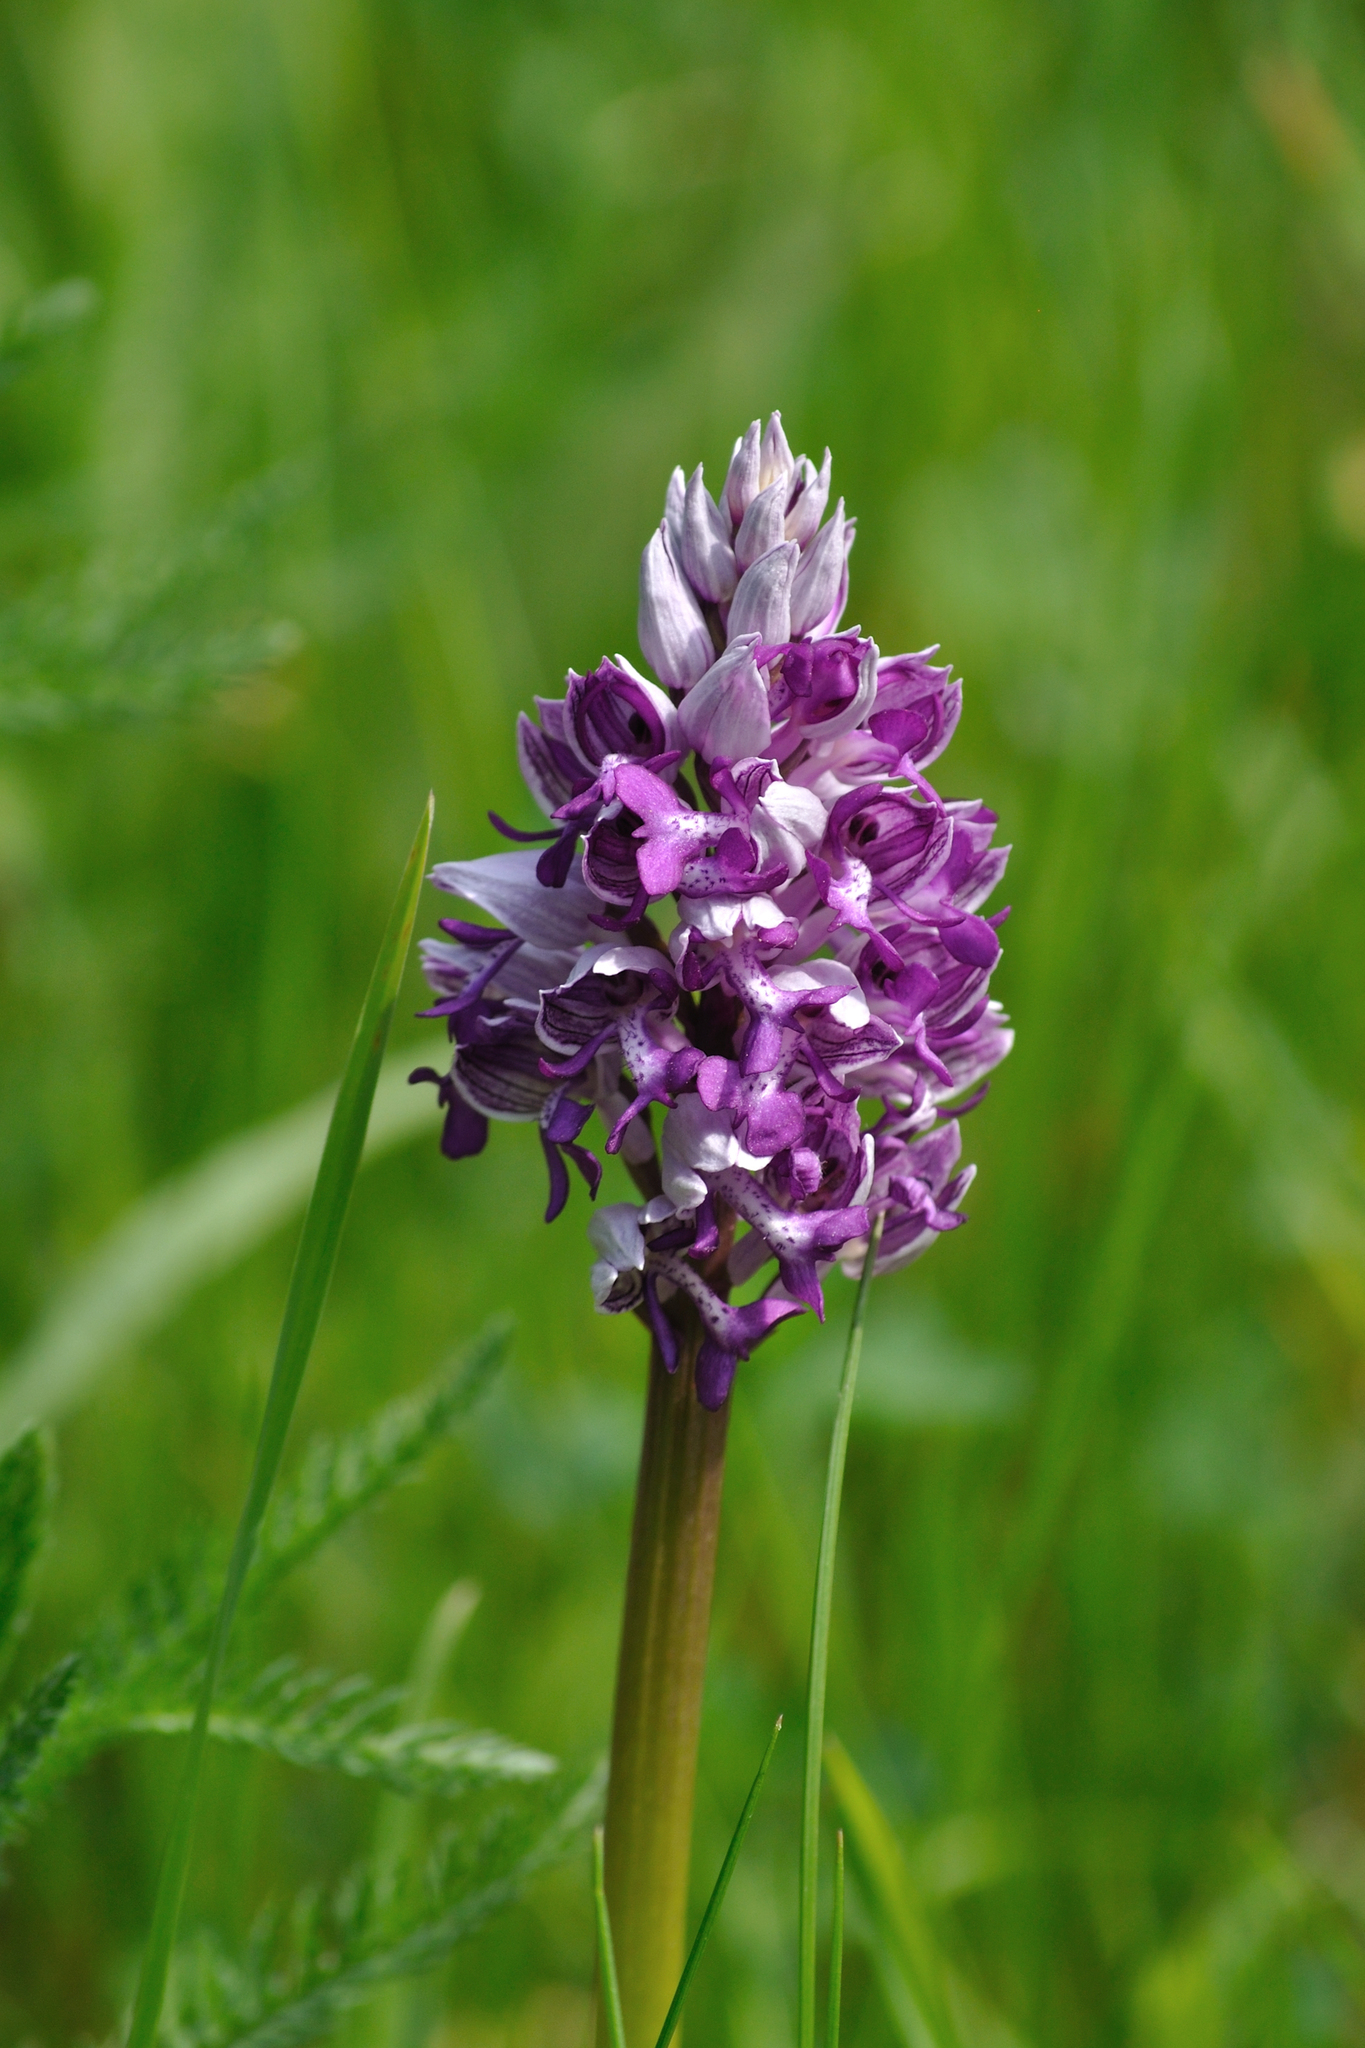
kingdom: Plantae
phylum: Tracheophyta
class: Liliopsida
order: Asparagales
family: Orchidaceae
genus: Orchis
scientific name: Orchis militaris
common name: Military orchid
